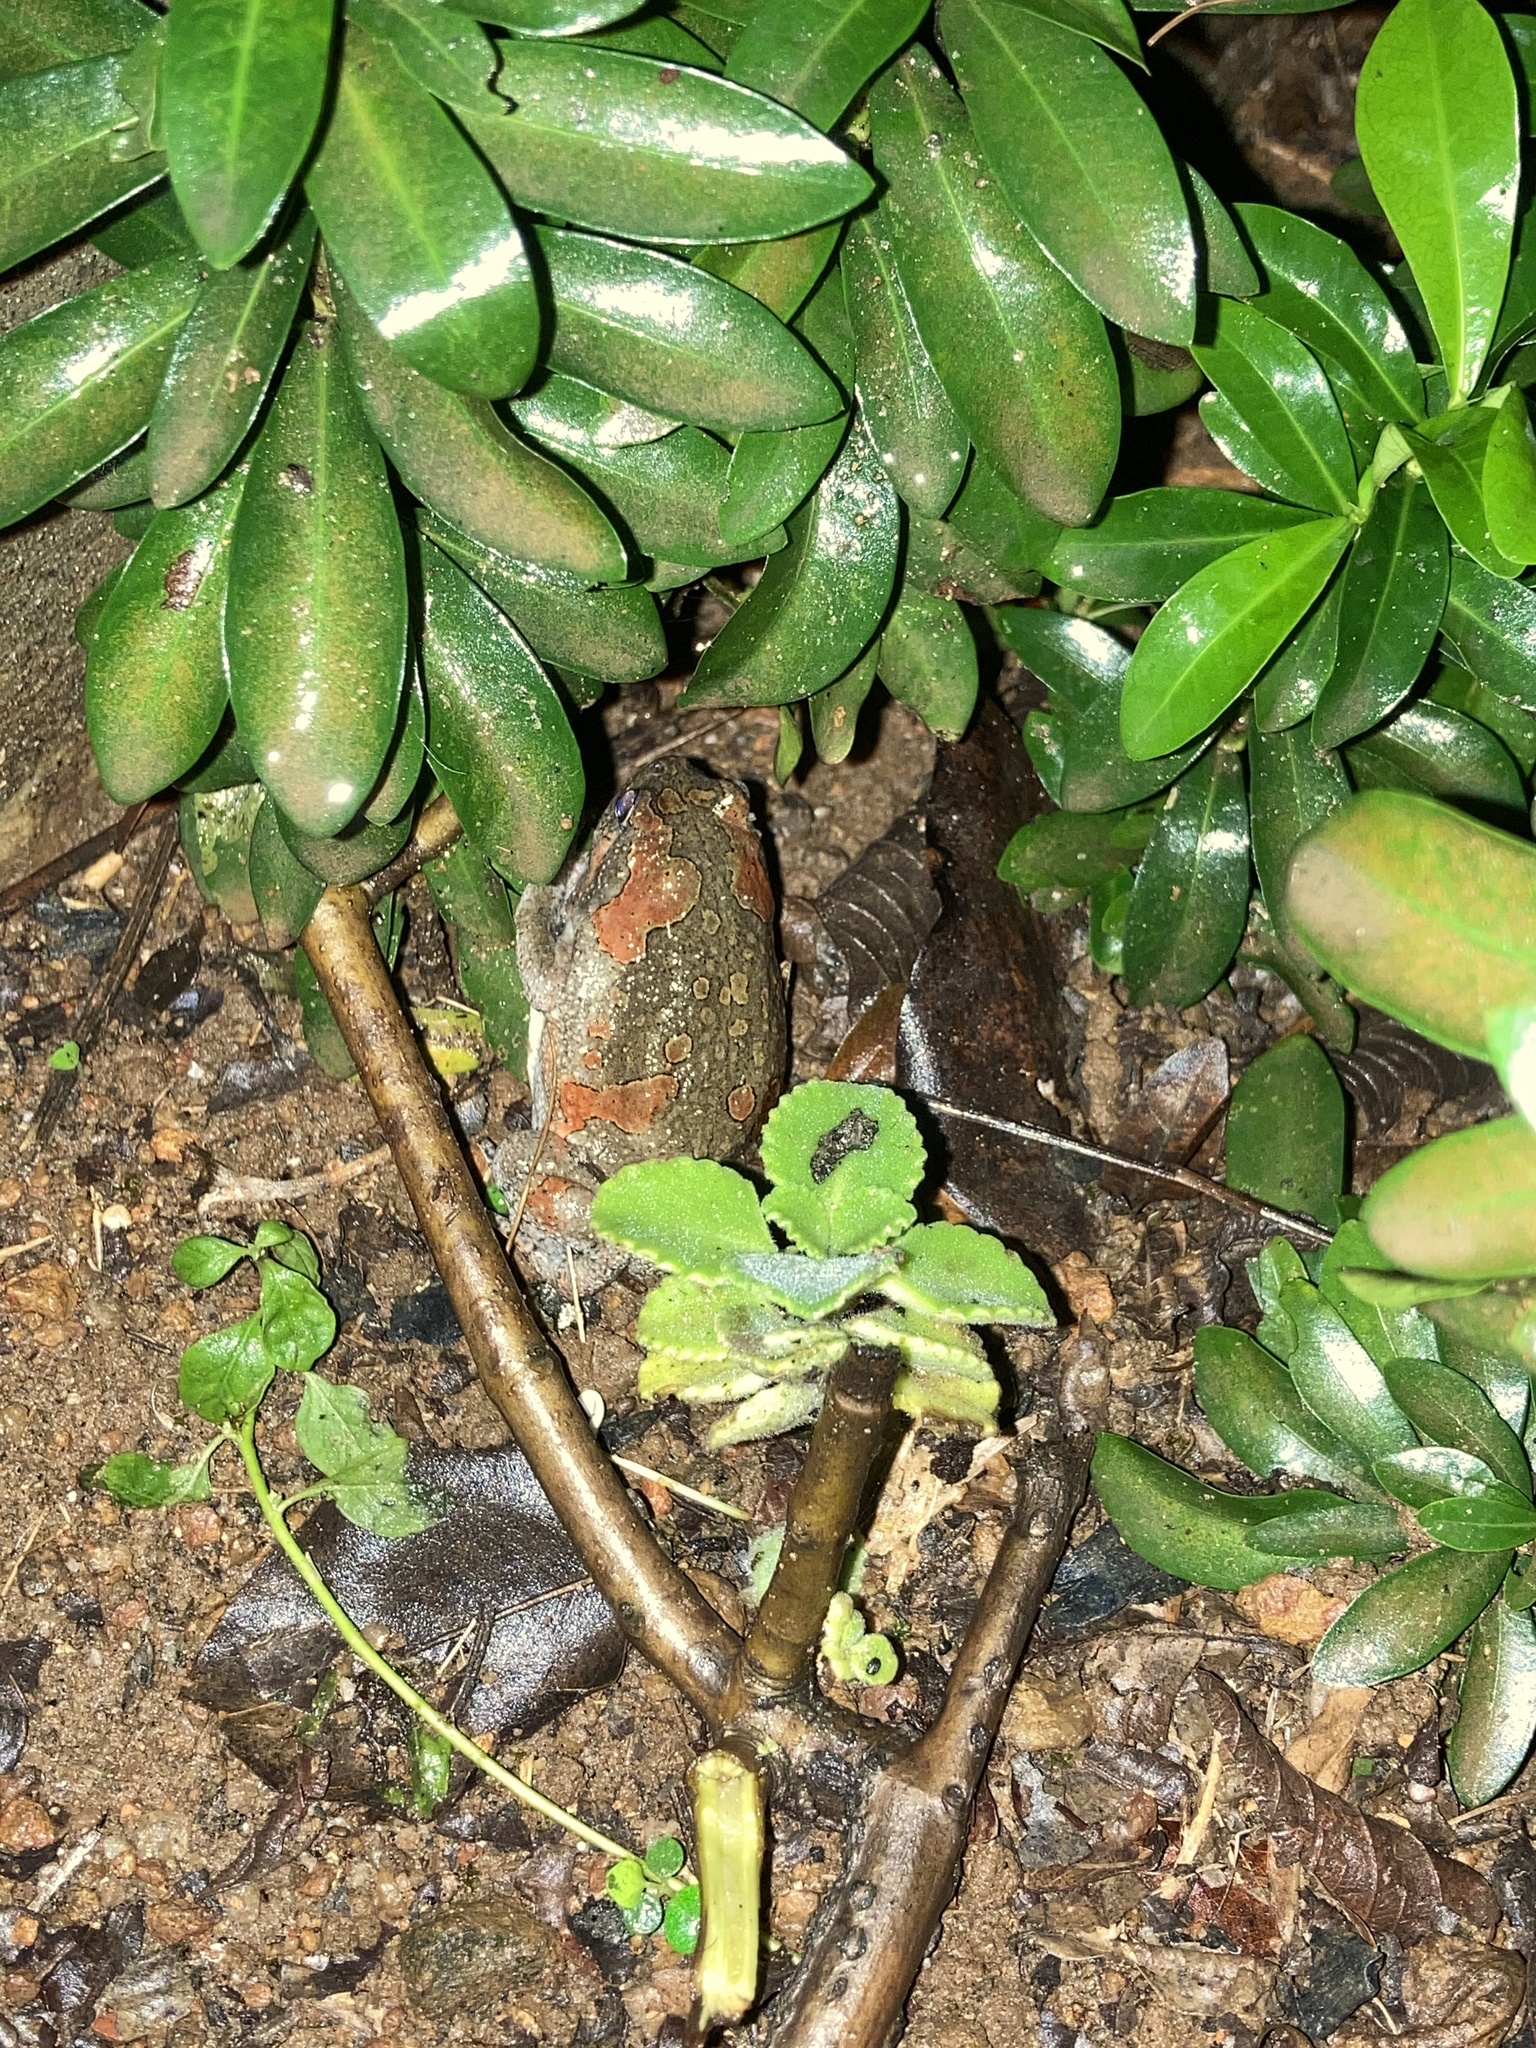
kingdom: Animalia
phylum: Chordata
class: Amphibia
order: Anura
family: Microhylidae
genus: Uperodon
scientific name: Uperodon taprobanicus
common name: Ceylon kaloula
